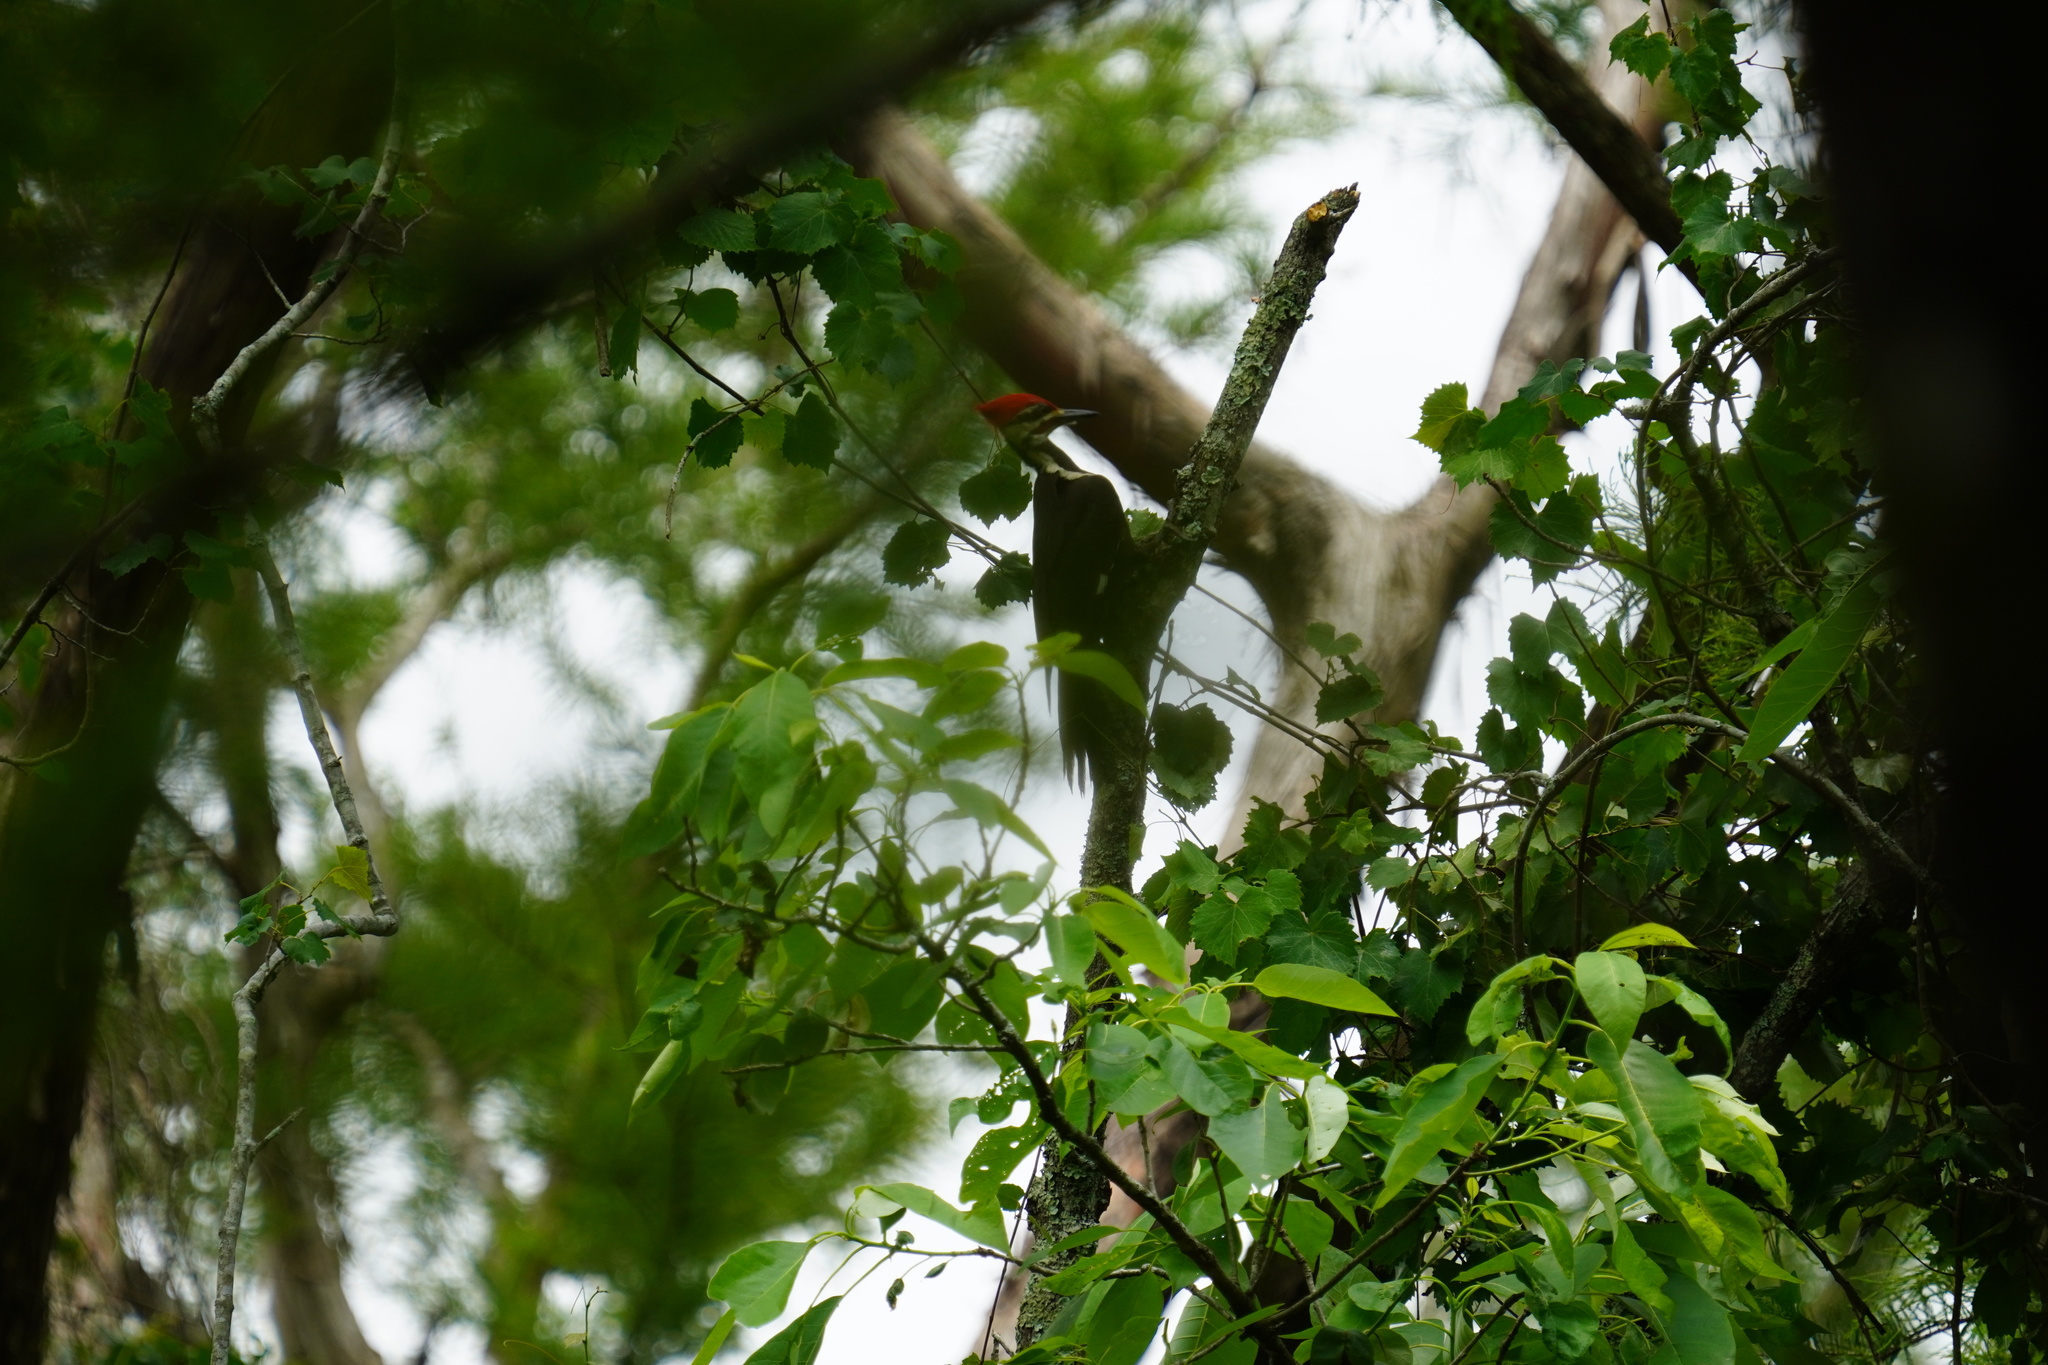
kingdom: Animalia
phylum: Chordata
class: Aves
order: Piciformes
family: Picidae
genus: Dryocopus
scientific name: Dryocopus pileatus
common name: Pileated woodpecker
